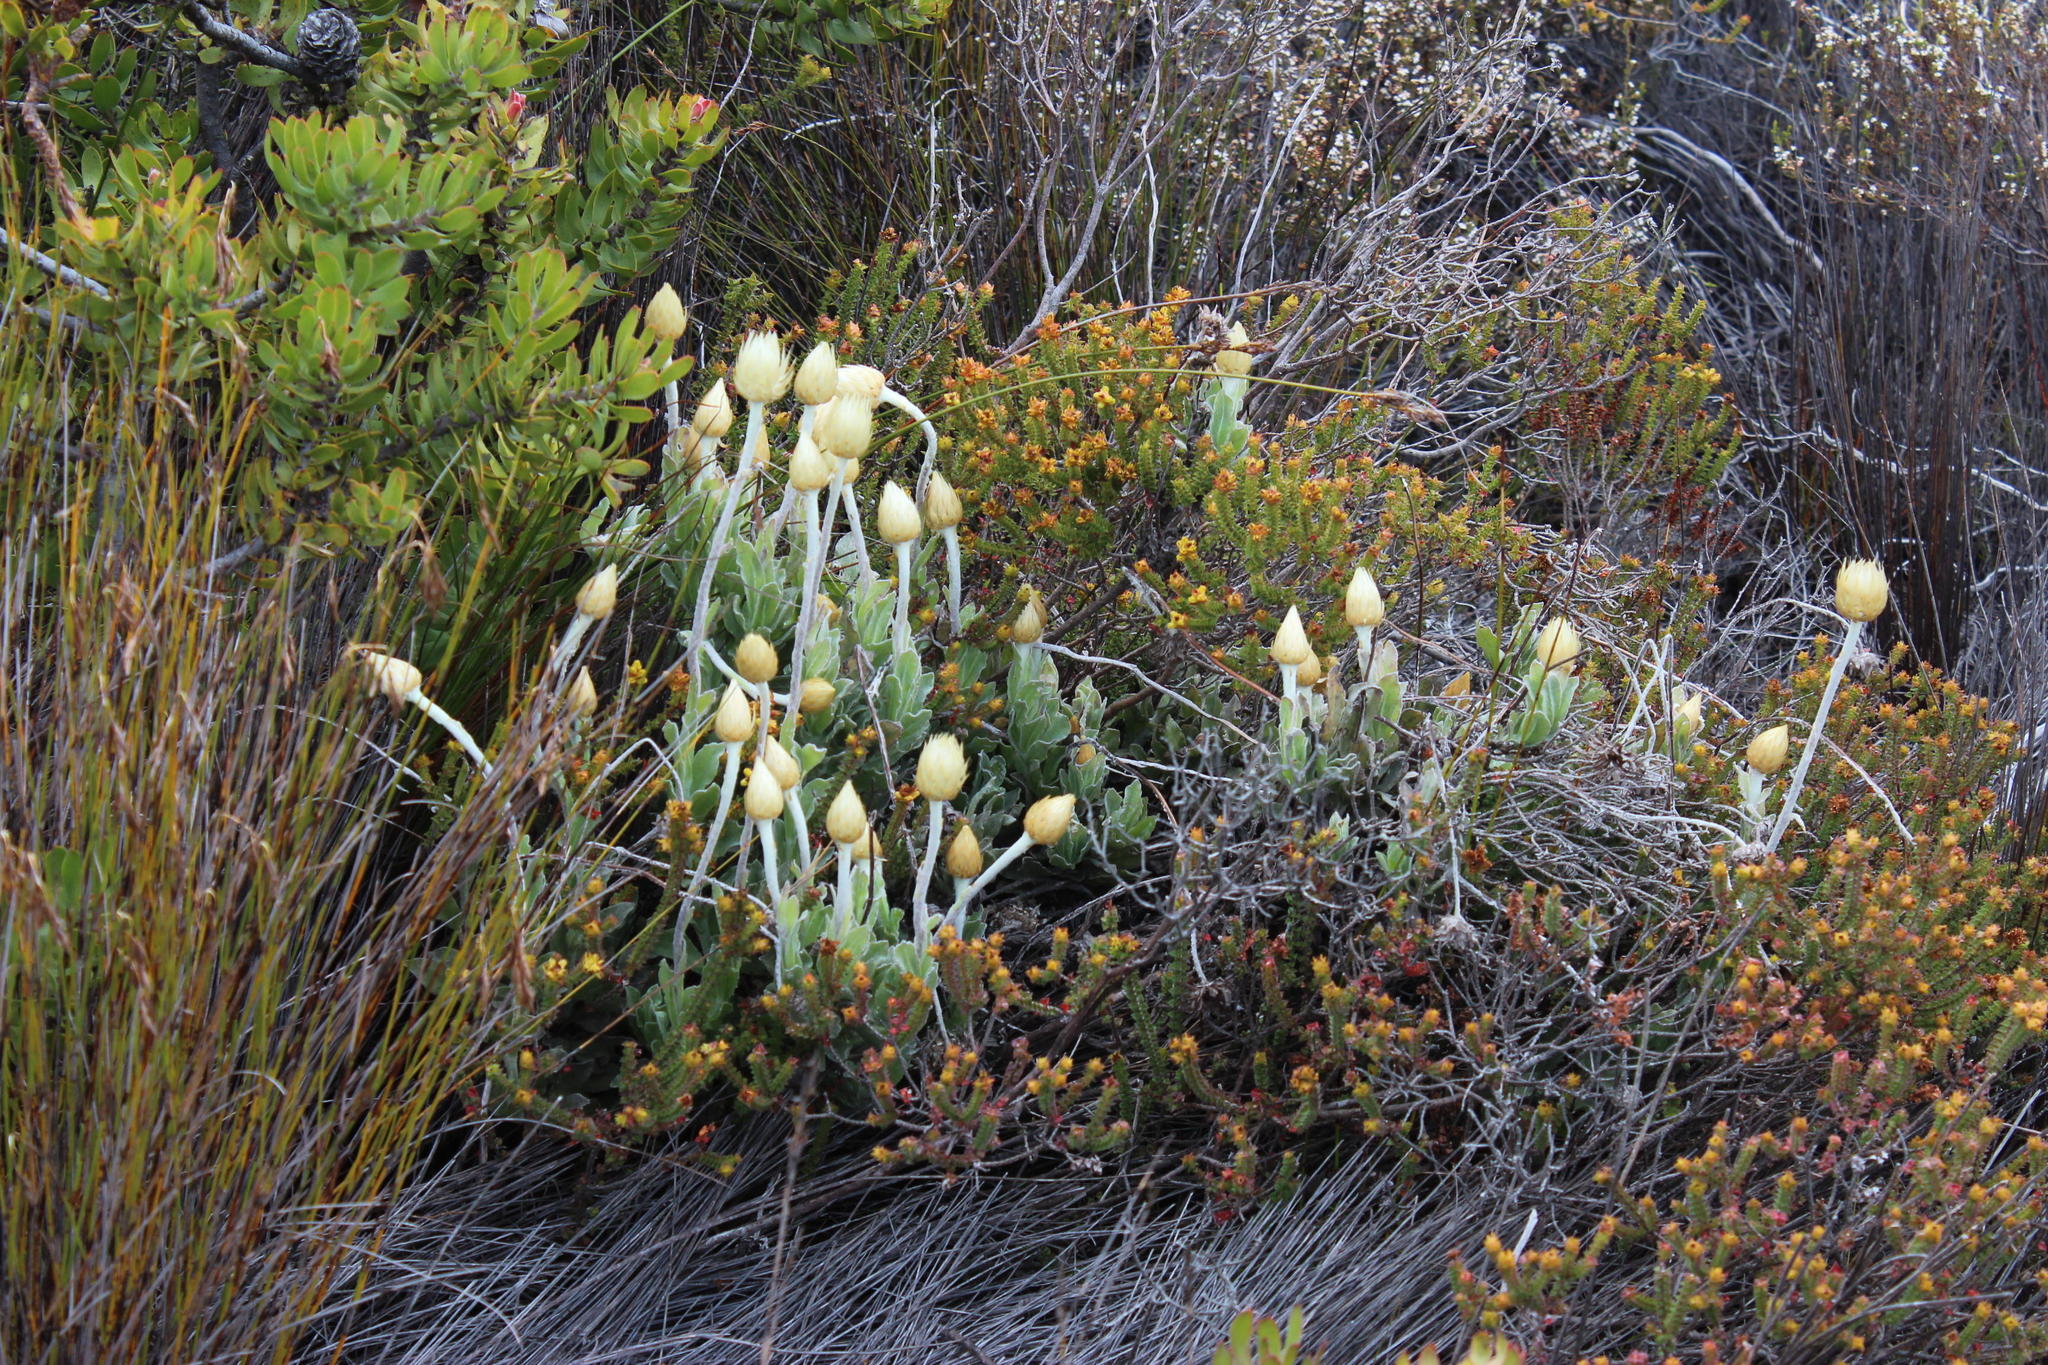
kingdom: Plantae
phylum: Tracheophyta
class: Magnoliopsida
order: Asterales
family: Asteraceae
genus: Syncarpha
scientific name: Syncarpha vestita
